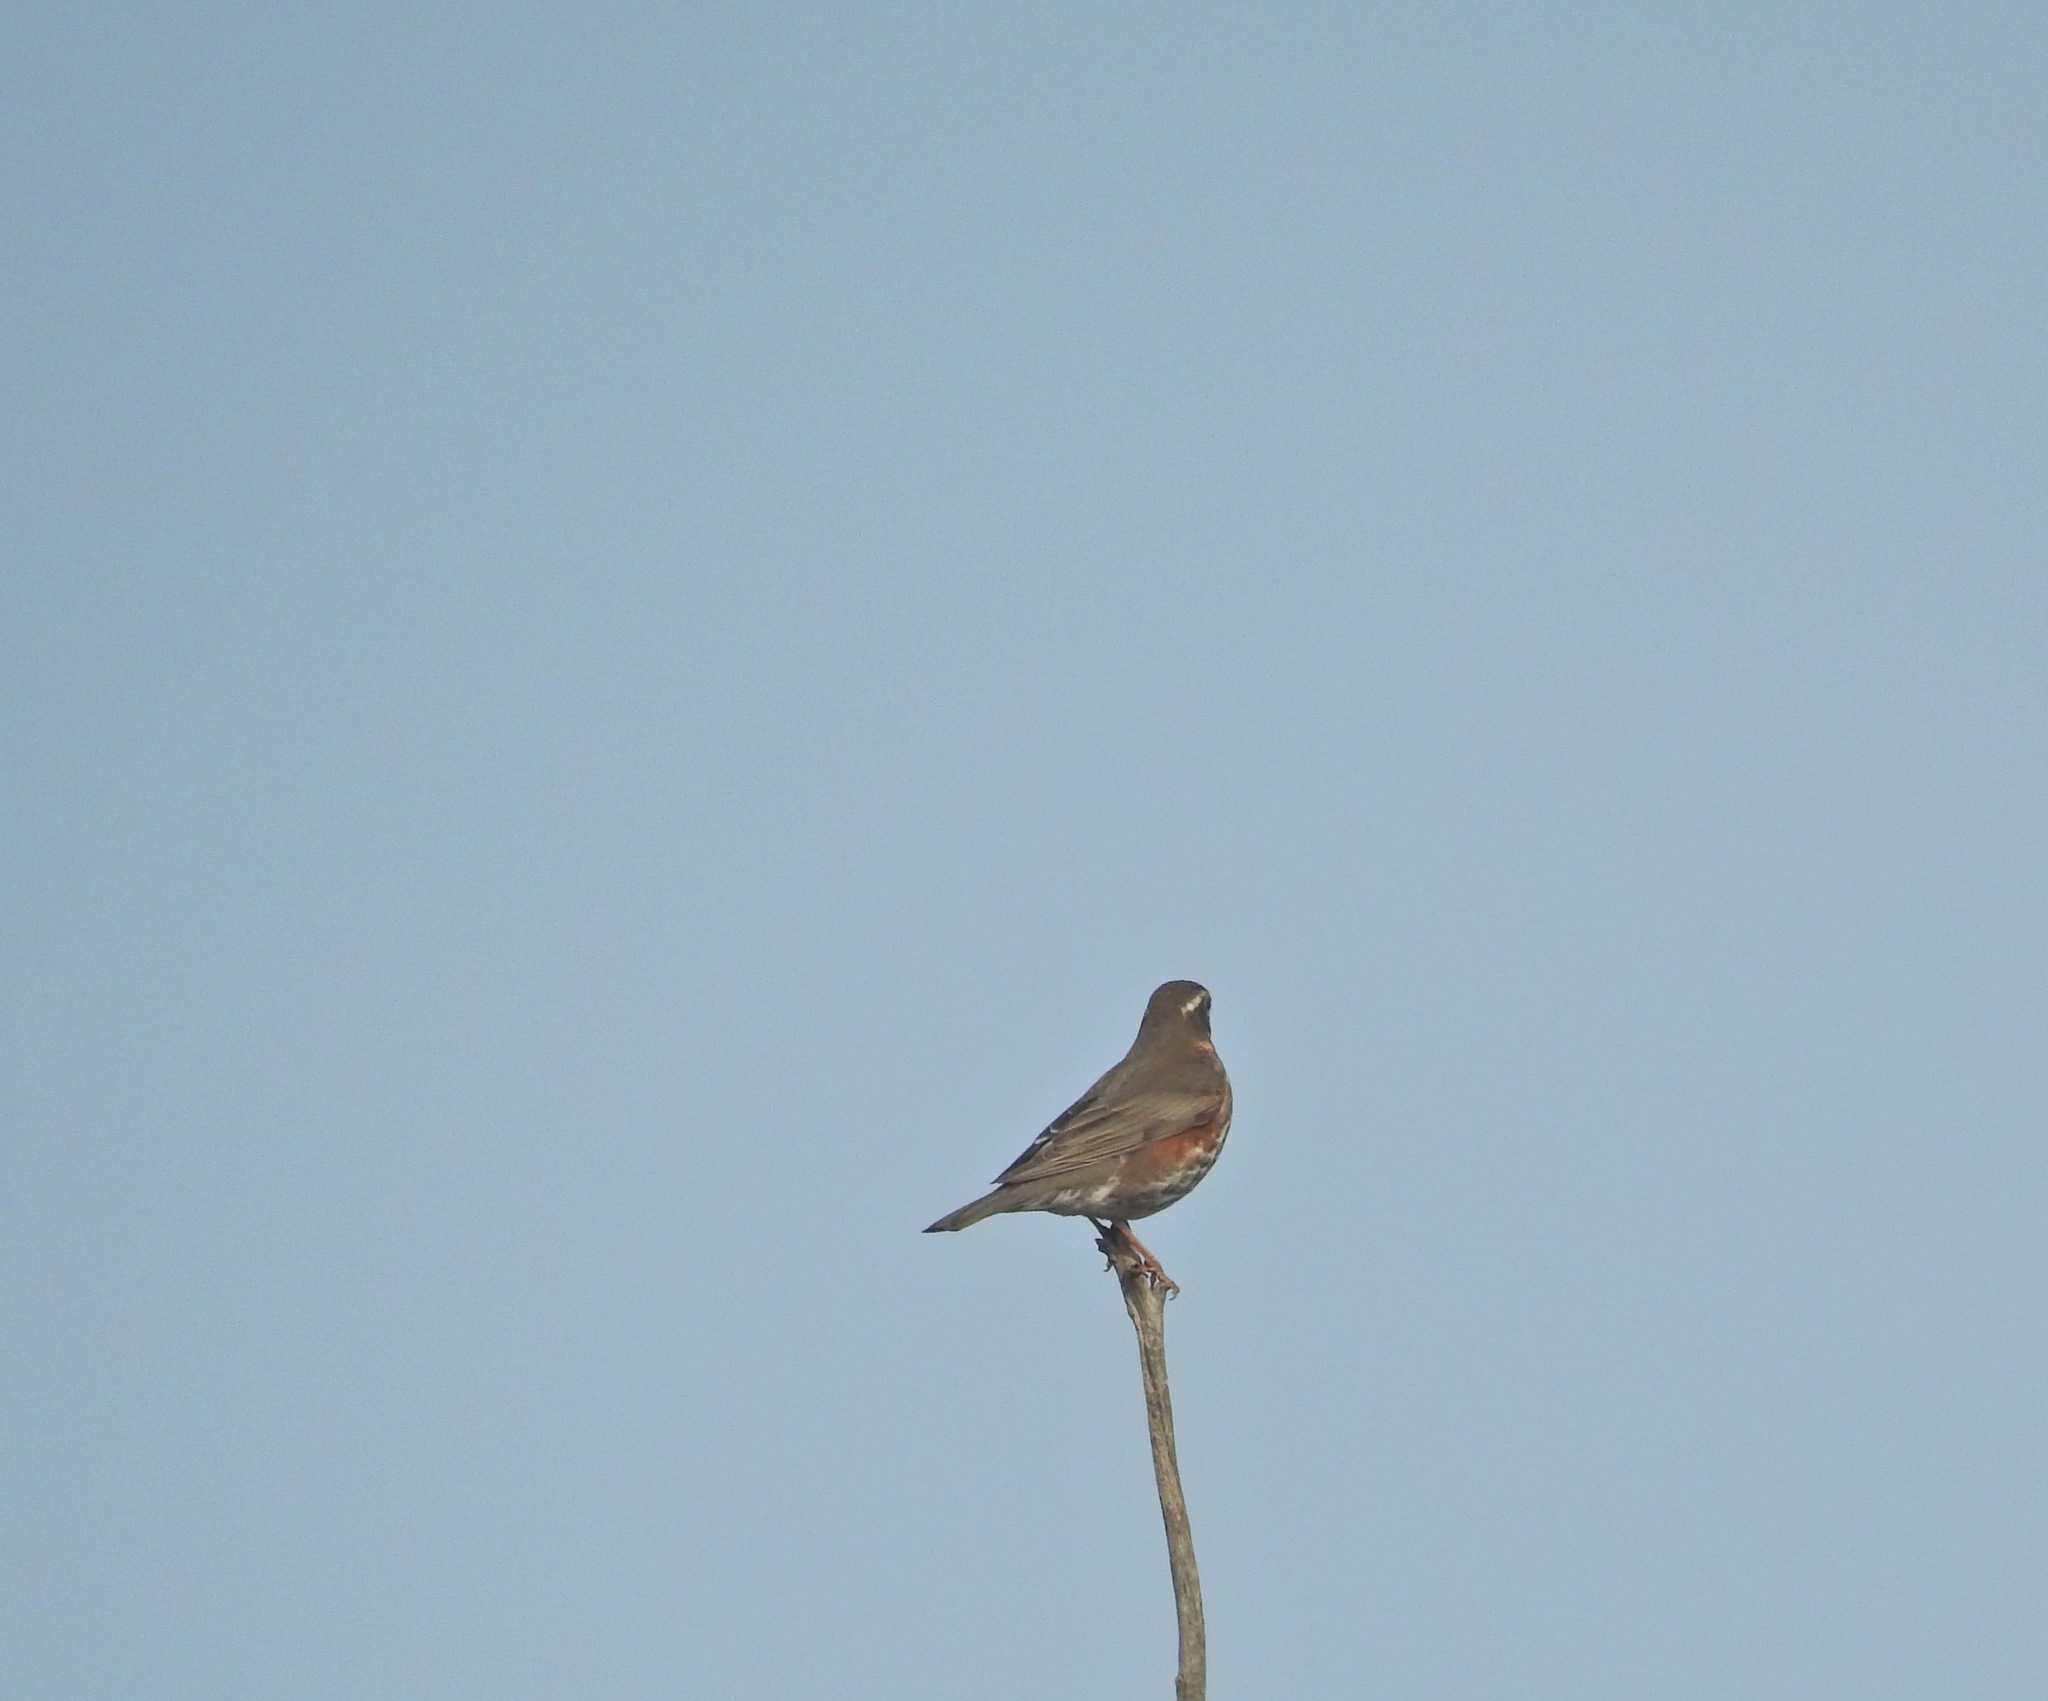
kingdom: Animalia
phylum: Chordata
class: Aves
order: Passeriformes
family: Turdidae
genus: Turdus
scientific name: Turdus iliacus
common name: Redwing
